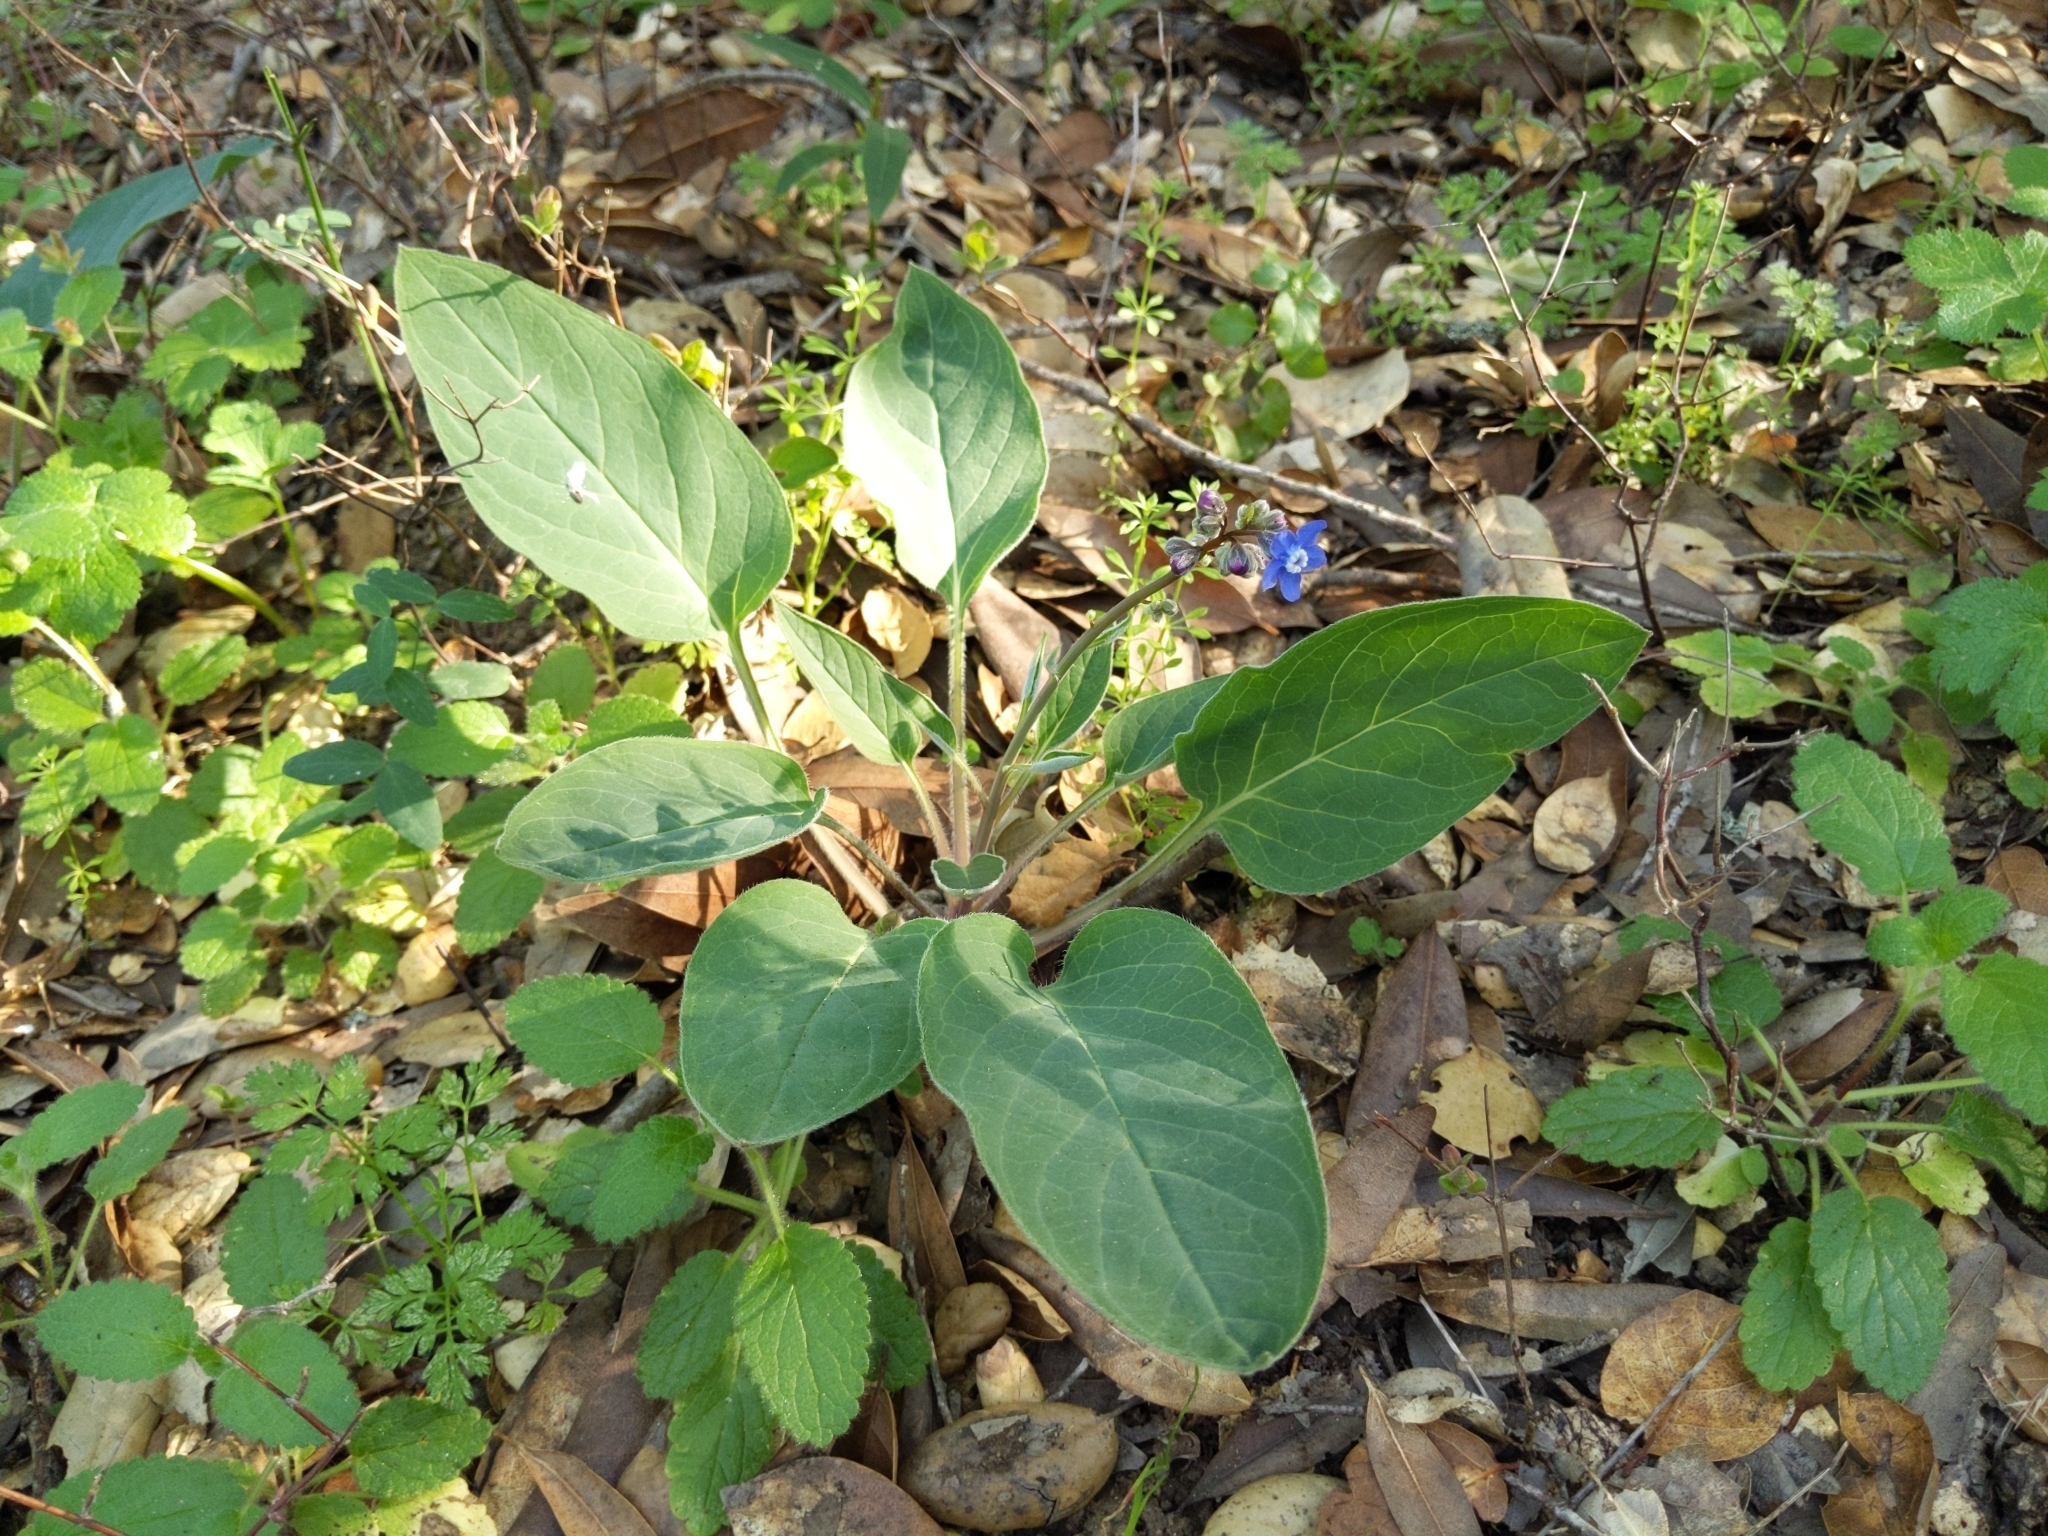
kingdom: Plantae
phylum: Tracheophyta
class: Magnoliopsida
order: Boraginales
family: Boraginaceae
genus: Adelinia
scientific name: Adelinia grande
